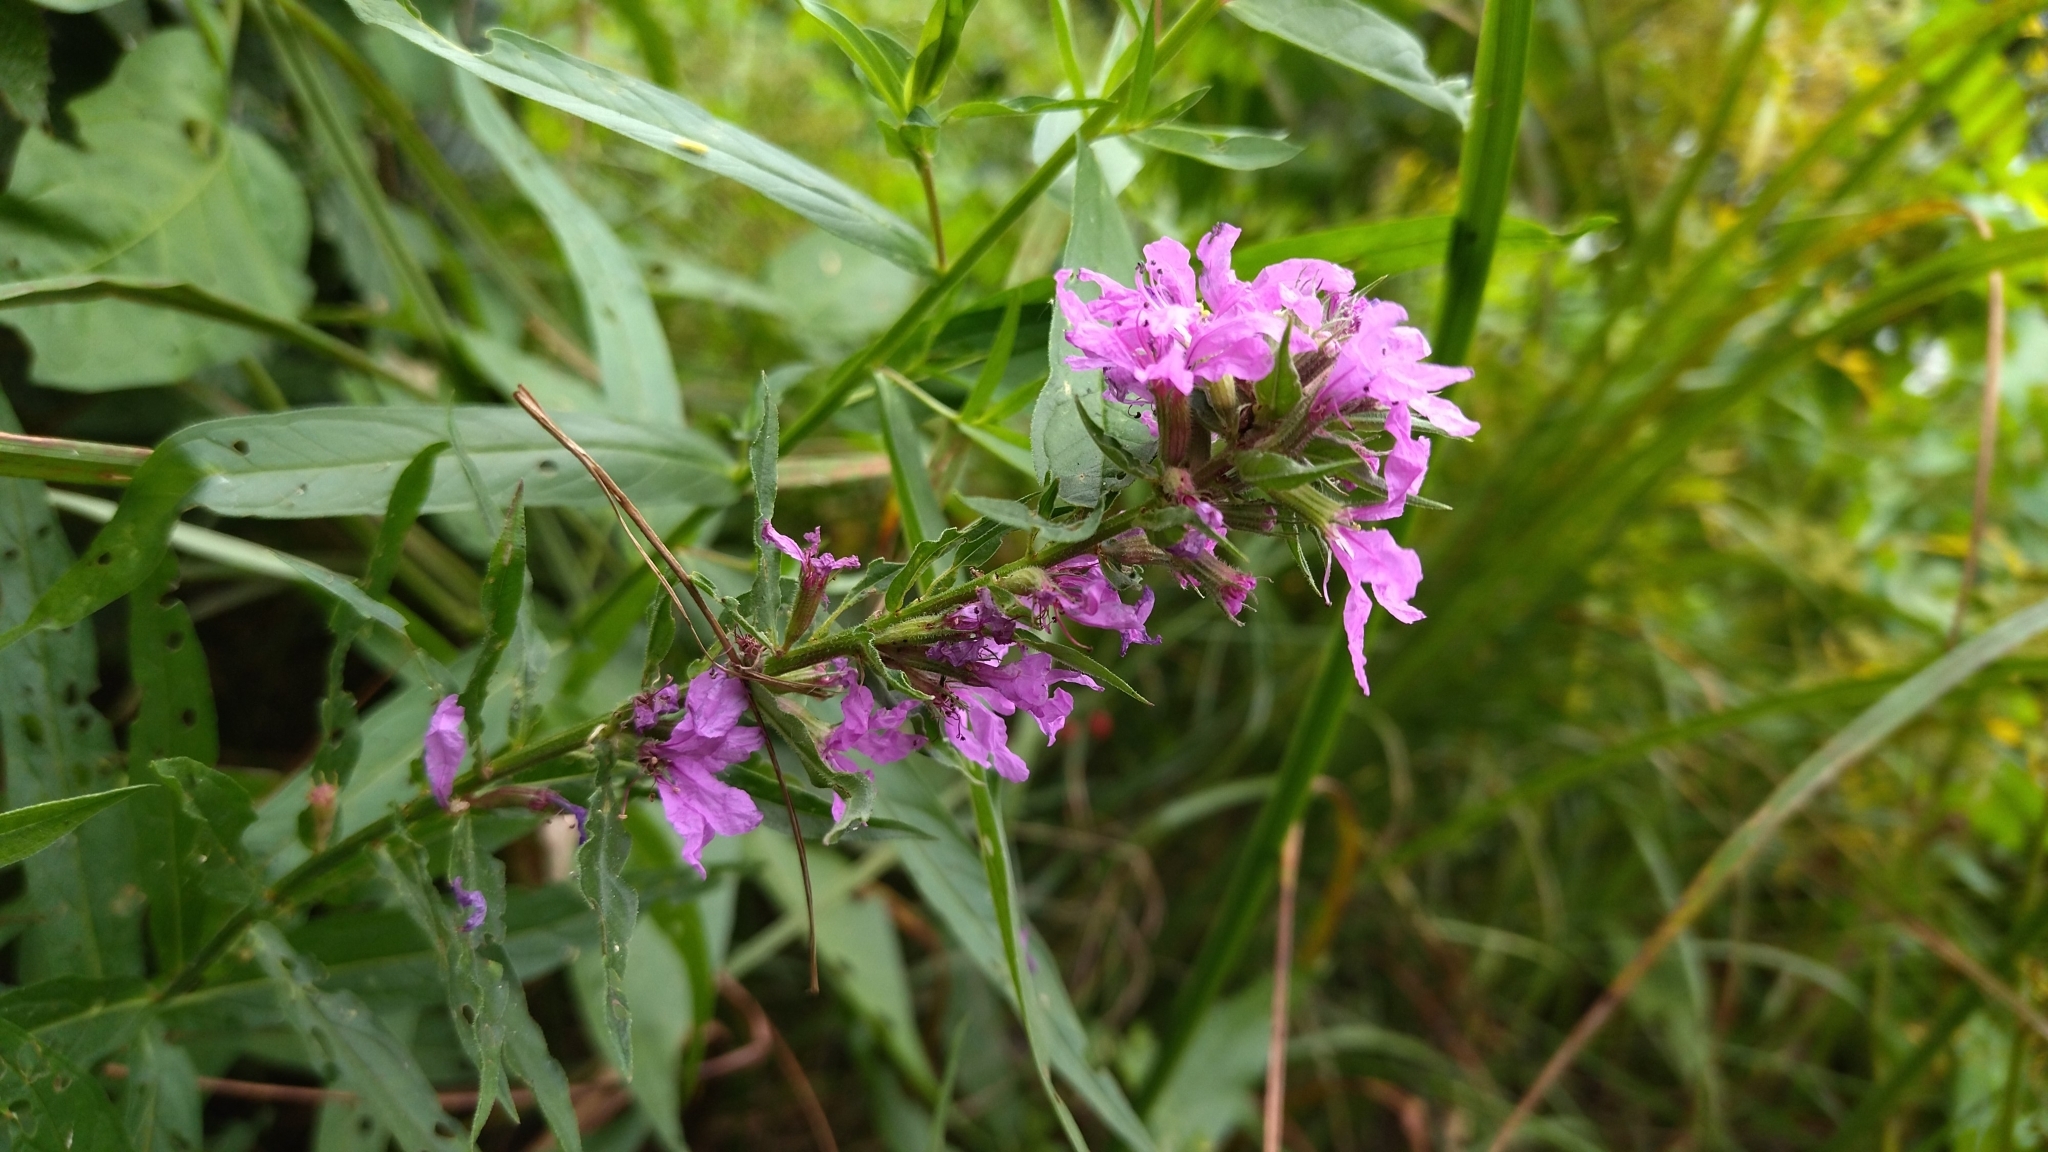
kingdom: Plantae
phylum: Tracheophyta
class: Magnoliopsida
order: Myrtales
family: Lythraceae
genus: Lythrum
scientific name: Lythrum salicaria
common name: Purple loosestrife
